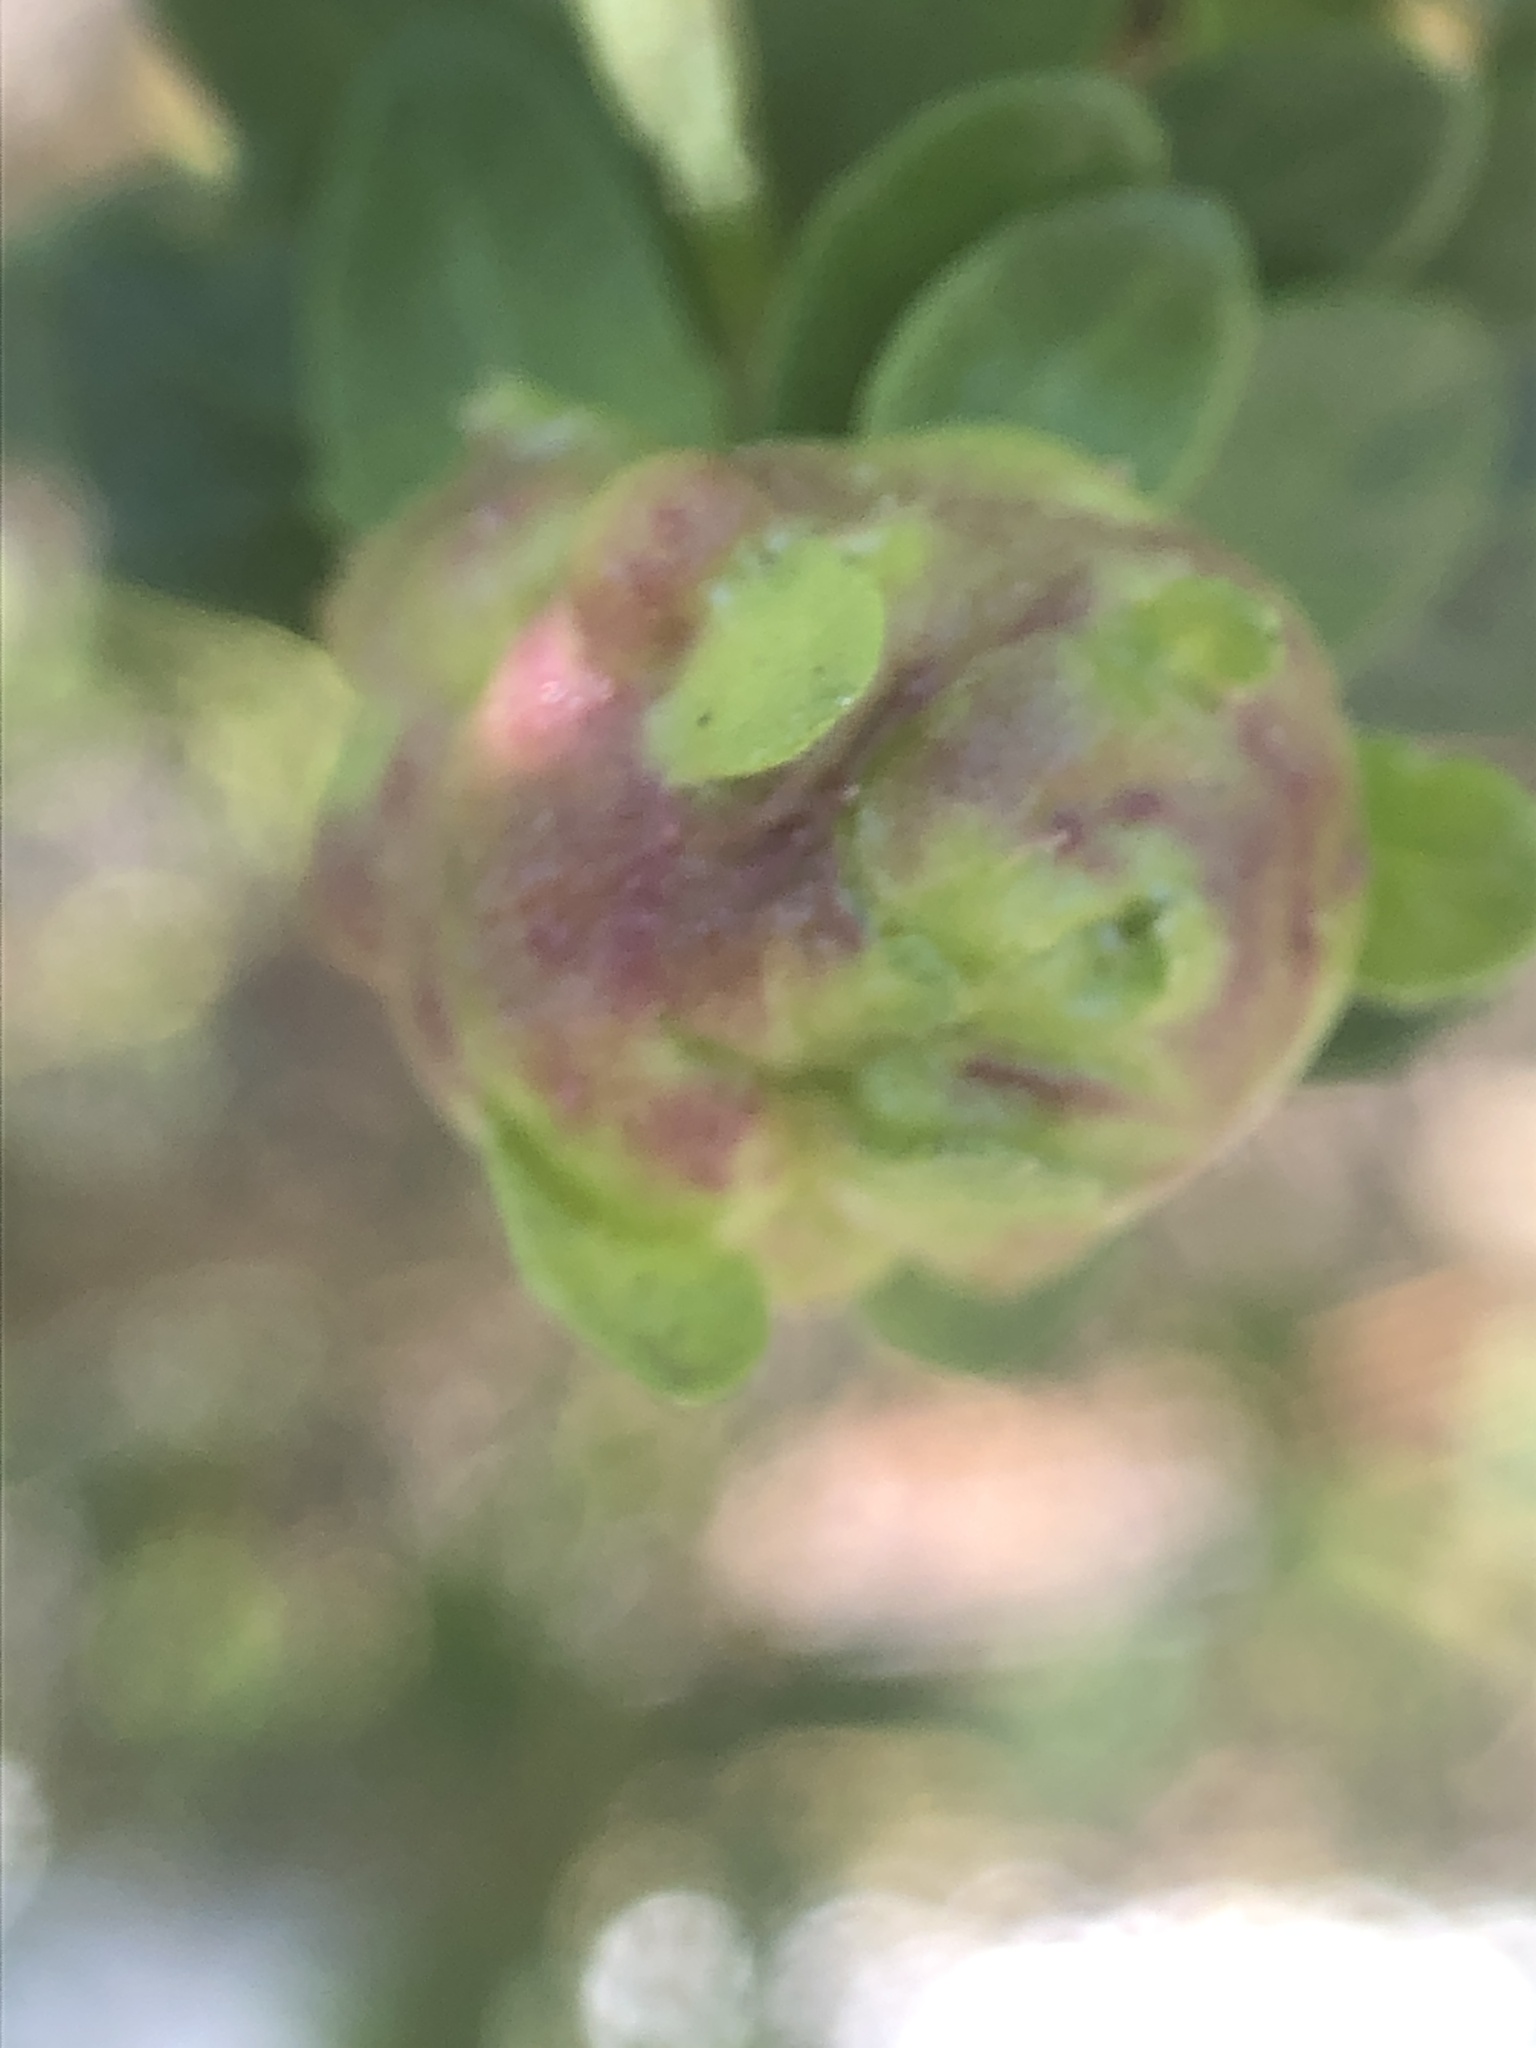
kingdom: Animalia
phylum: Arthropoda
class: Insecta
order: Diptera
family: Cecidomyiidae
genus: Rhopalomyia
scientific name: Rhopalomyia californica
